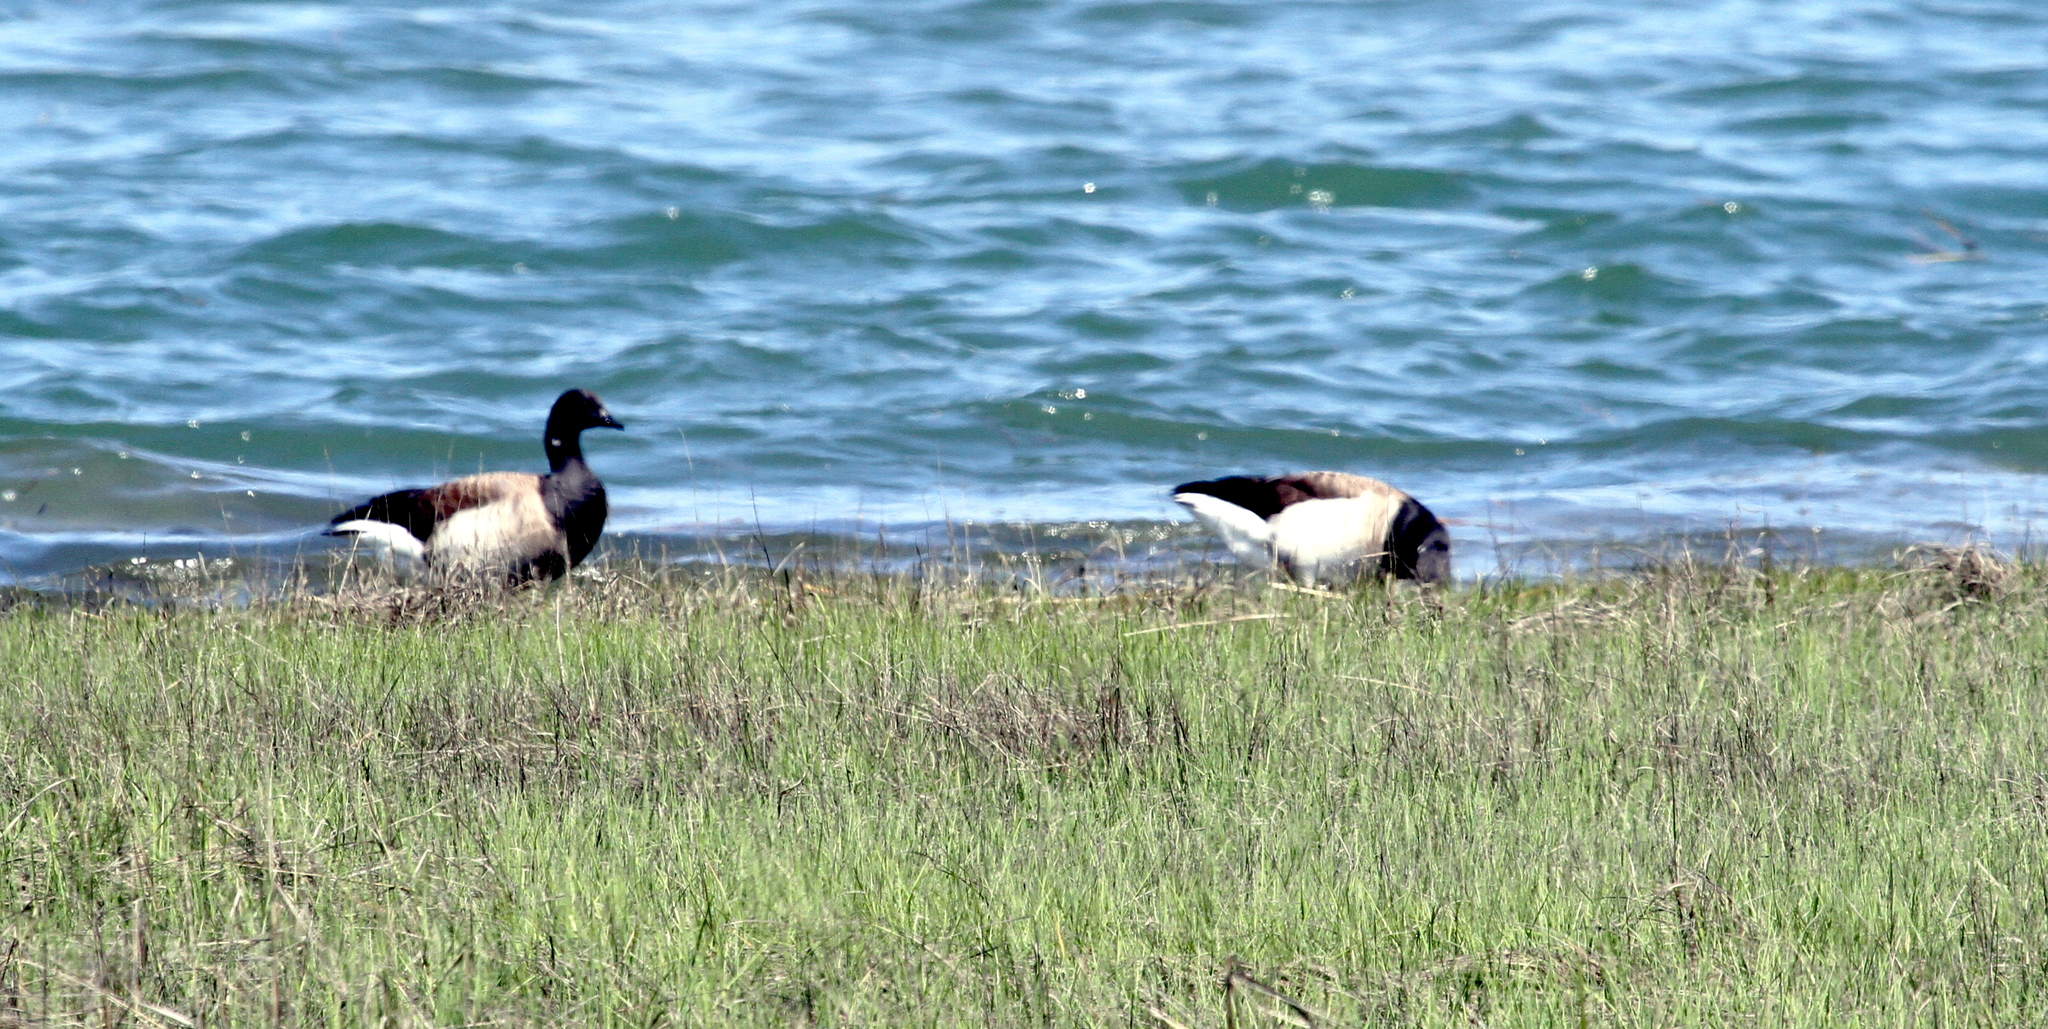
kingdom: Animalia
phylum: Chordata
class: Aves
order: Anseriformes
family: Anatidae
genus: Branta
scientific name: Branta bernicla
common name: Brant goose
